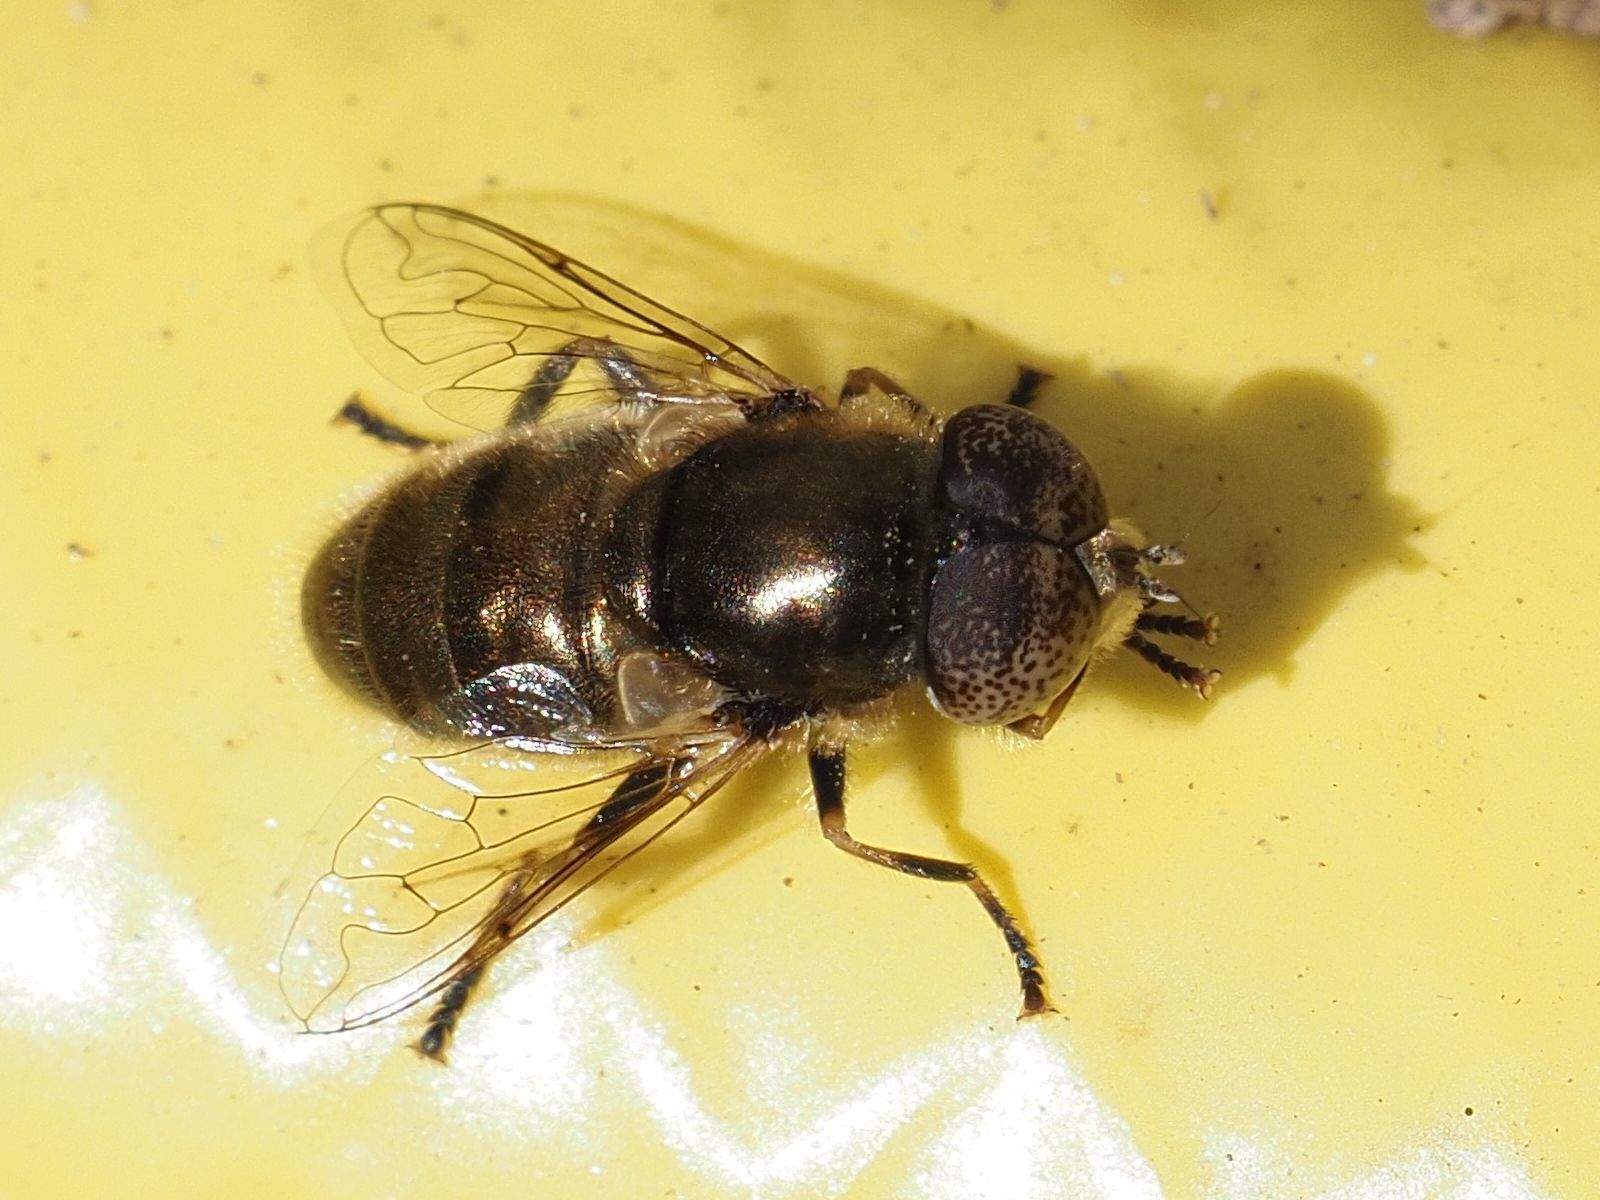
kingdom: Animalia
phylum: Arthropoda
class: Insecta
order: Diptera
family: Syrphidae
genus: Eristalinus
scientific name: Eristalinus aeneus
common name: Syrphid fly
